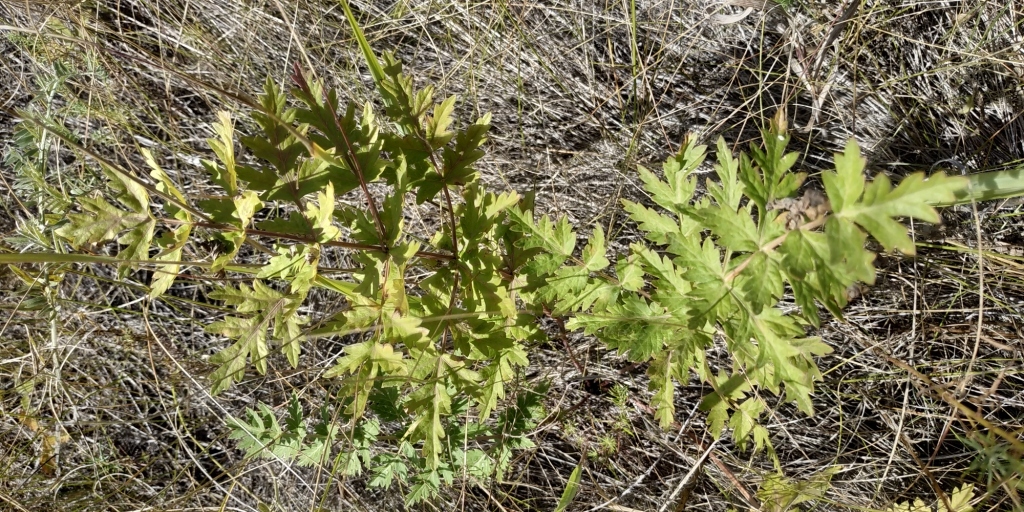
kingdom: Plantae
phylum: Tracheophyta
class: Magnoliopsida
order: Apiales
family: Apiaceae
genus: Seseli
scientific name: Seseli libanotis
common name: Mooncarrot
